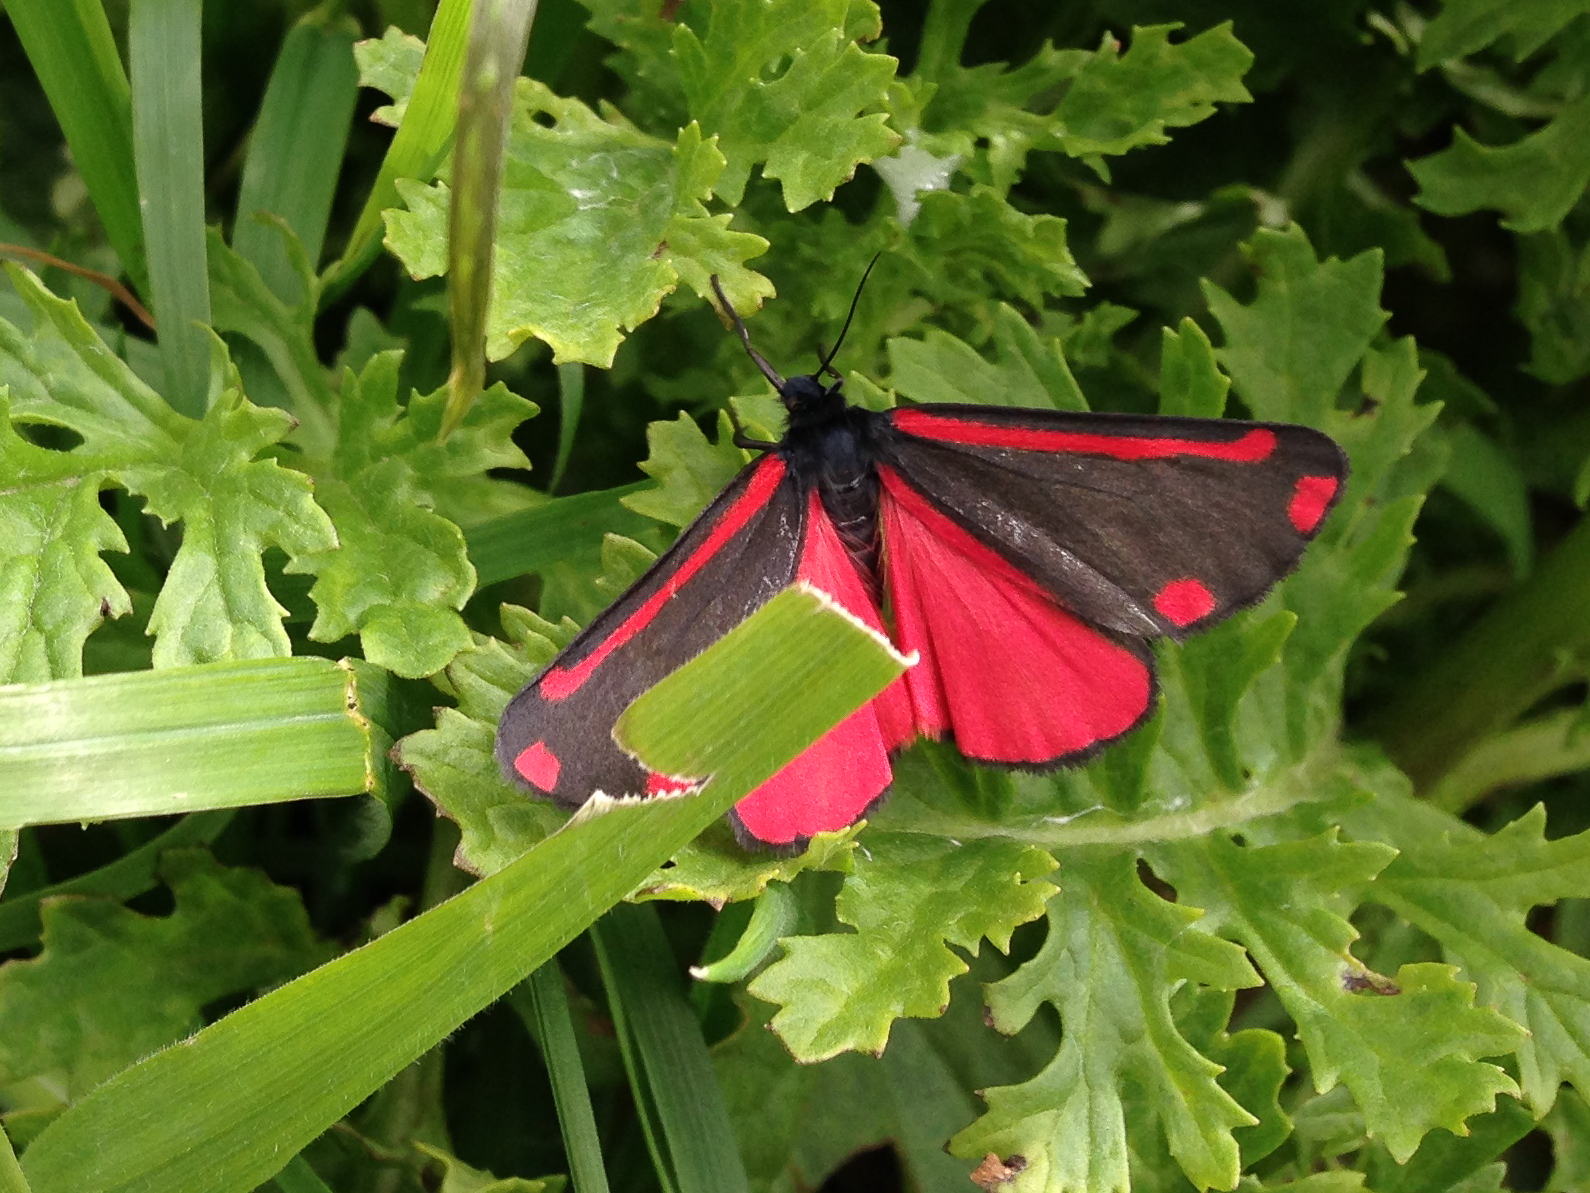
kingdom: Animalia
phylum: Arthropoda
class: Insecta
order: Lepidoptera
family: Erebidae
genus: Tyria
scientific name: Tyria jacobaeae
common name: Cinnabar
